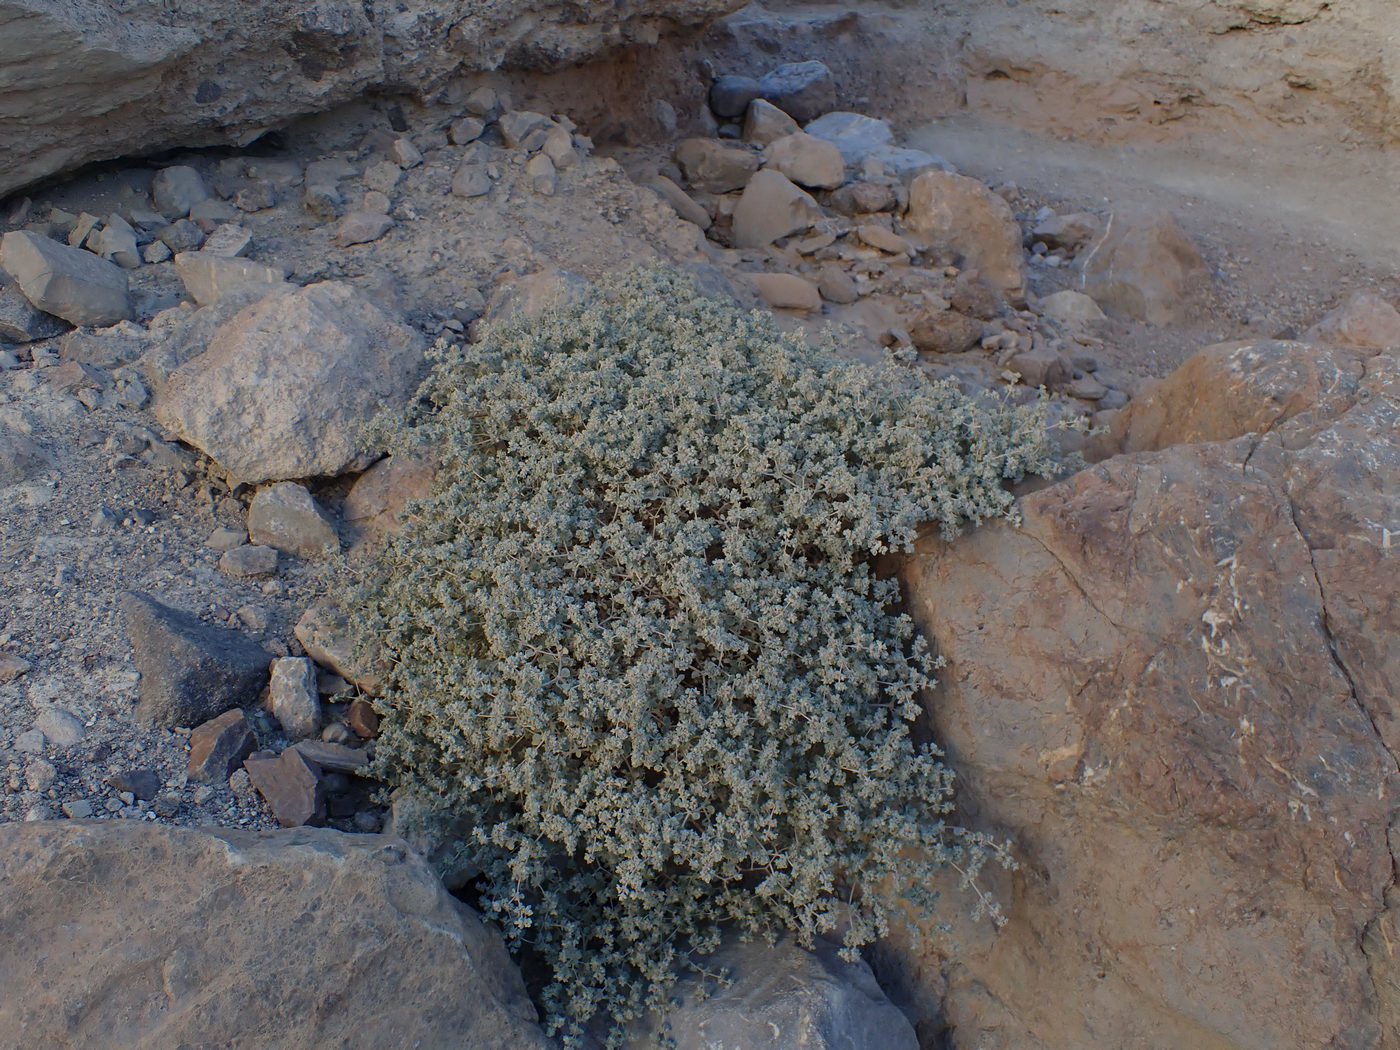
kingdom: Plantae
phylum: Tracheophyta
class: Magnoliopsida
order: Caryophyllales
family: Amaranthaceae
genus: Tidestromia
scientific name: Tidestromia suffruticosa
